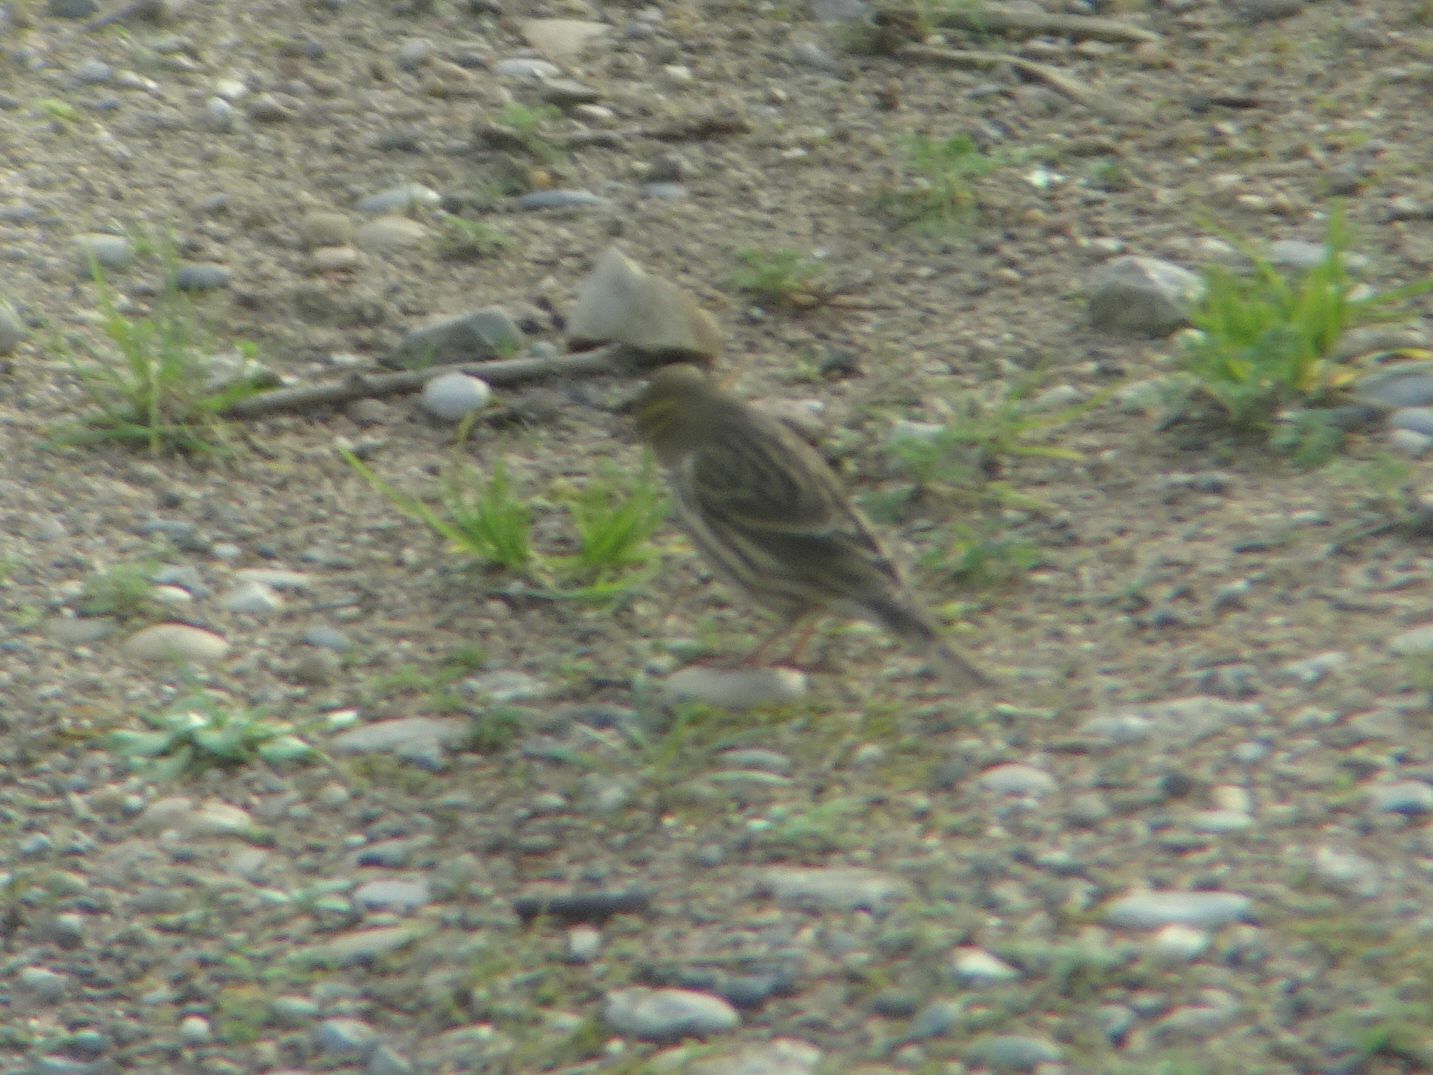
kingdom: Animalia
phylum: Chordata
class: Aves
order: Passeriformes
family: Fringillidae
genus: Serinus
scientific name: Serinus serinus
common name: European serin
